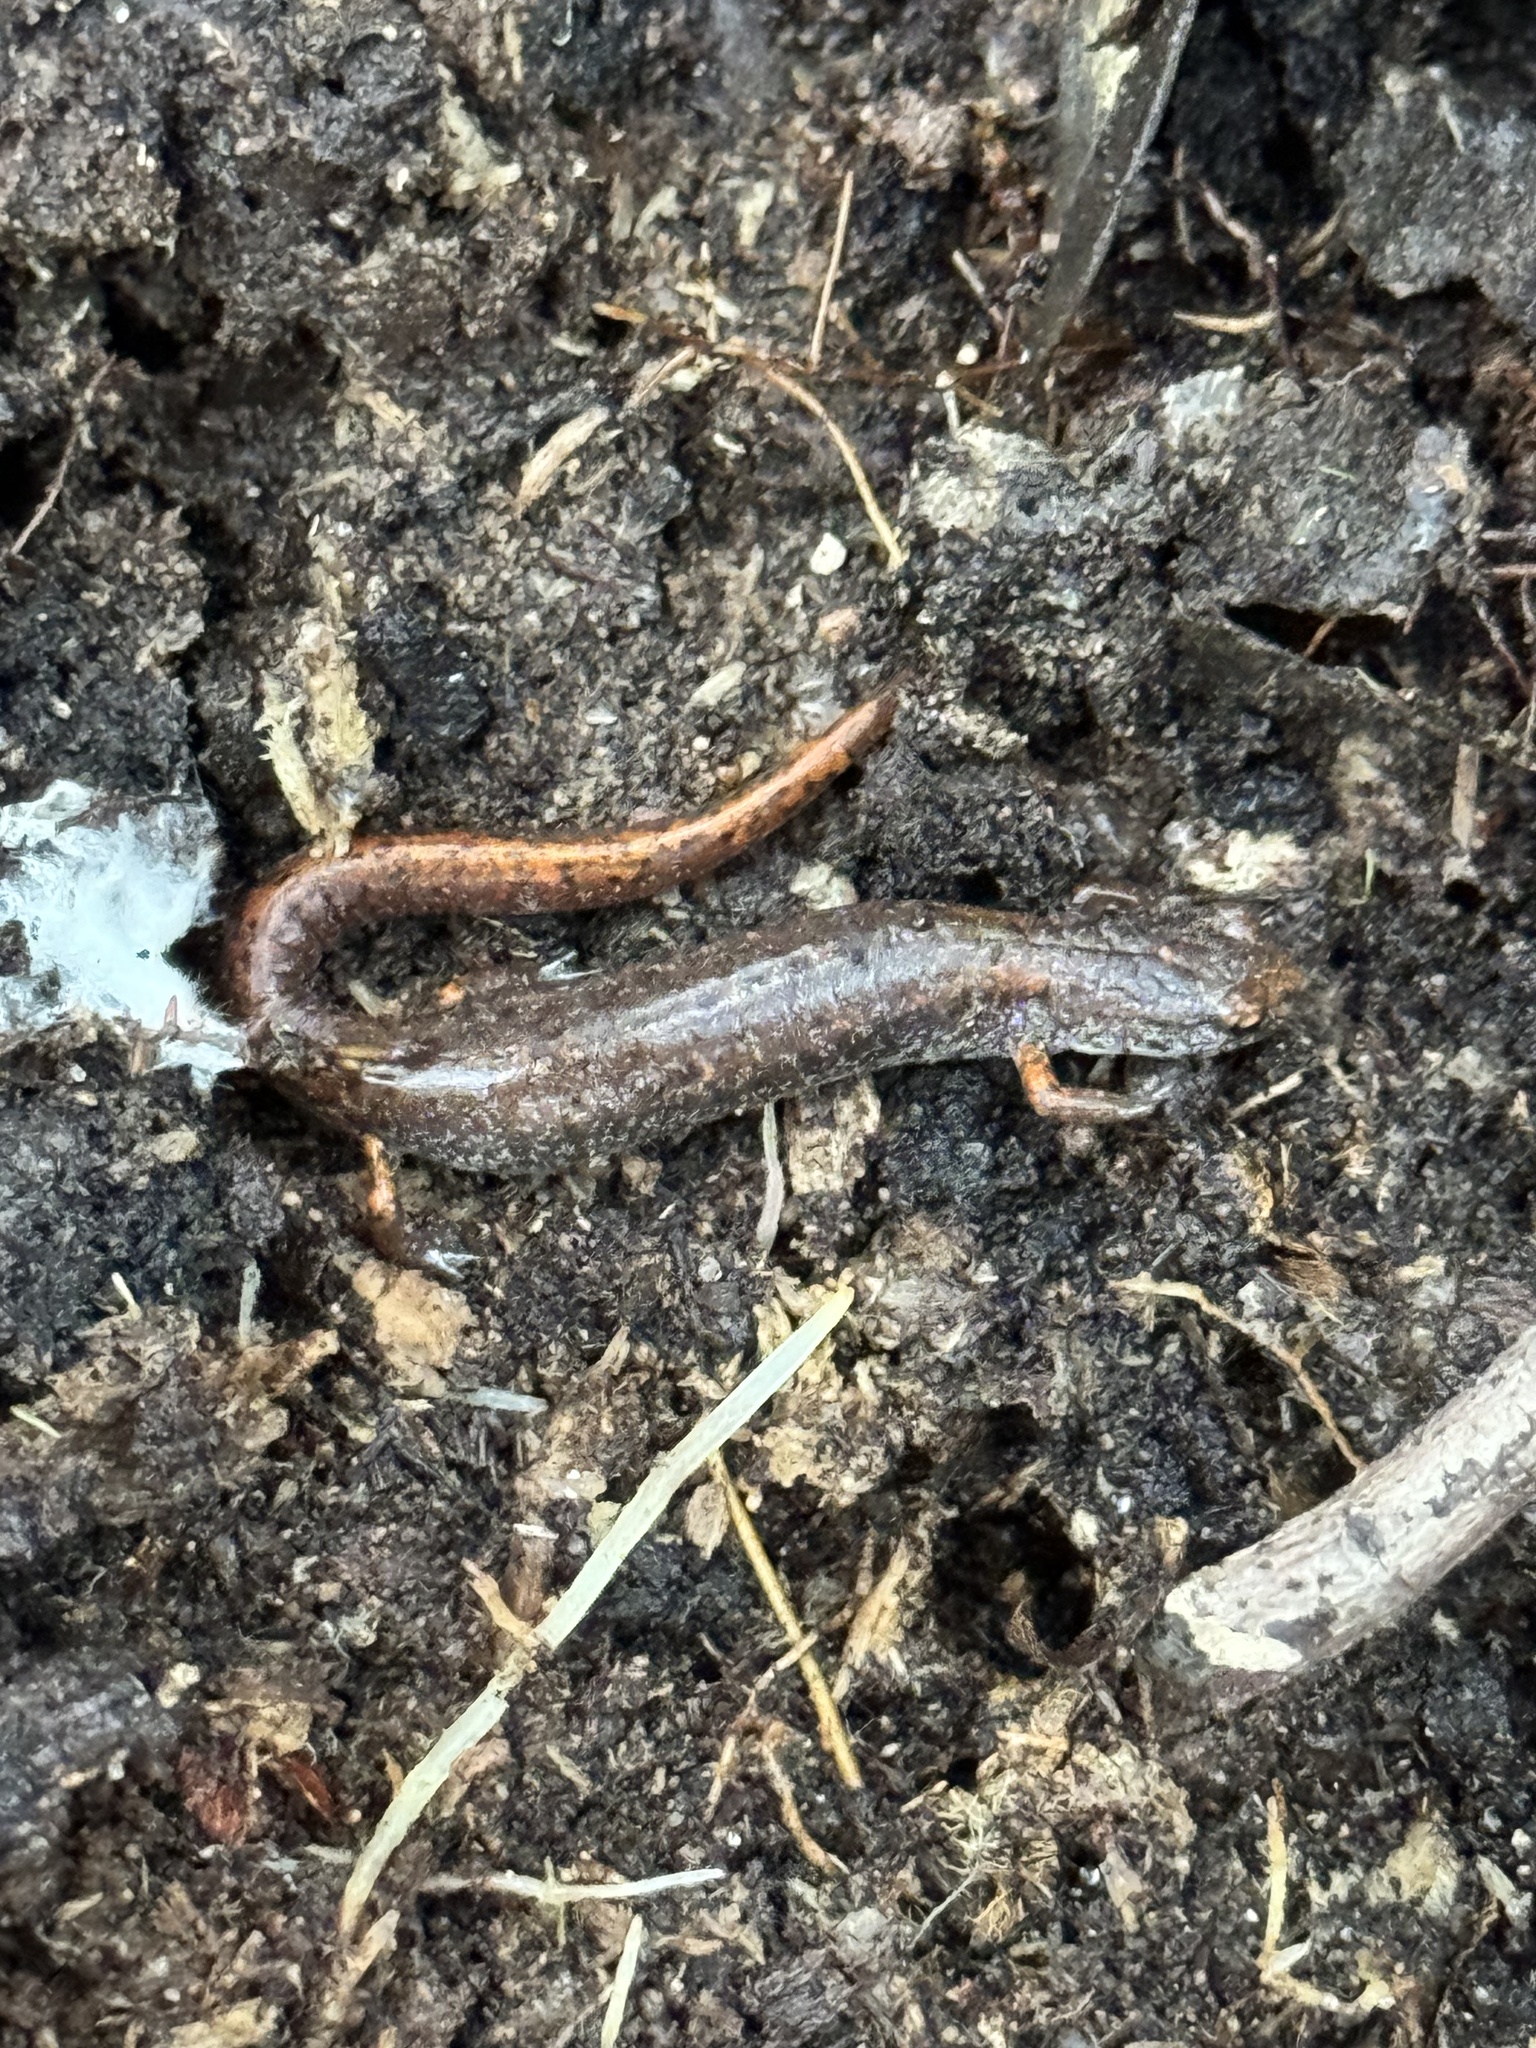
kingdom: Animalia
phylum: Chordata
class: Amphibia
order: Caudata
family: Plethodontidae
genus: Hemidactylium
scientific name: Hemidactylium scutatum
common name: Four-toed salamander
